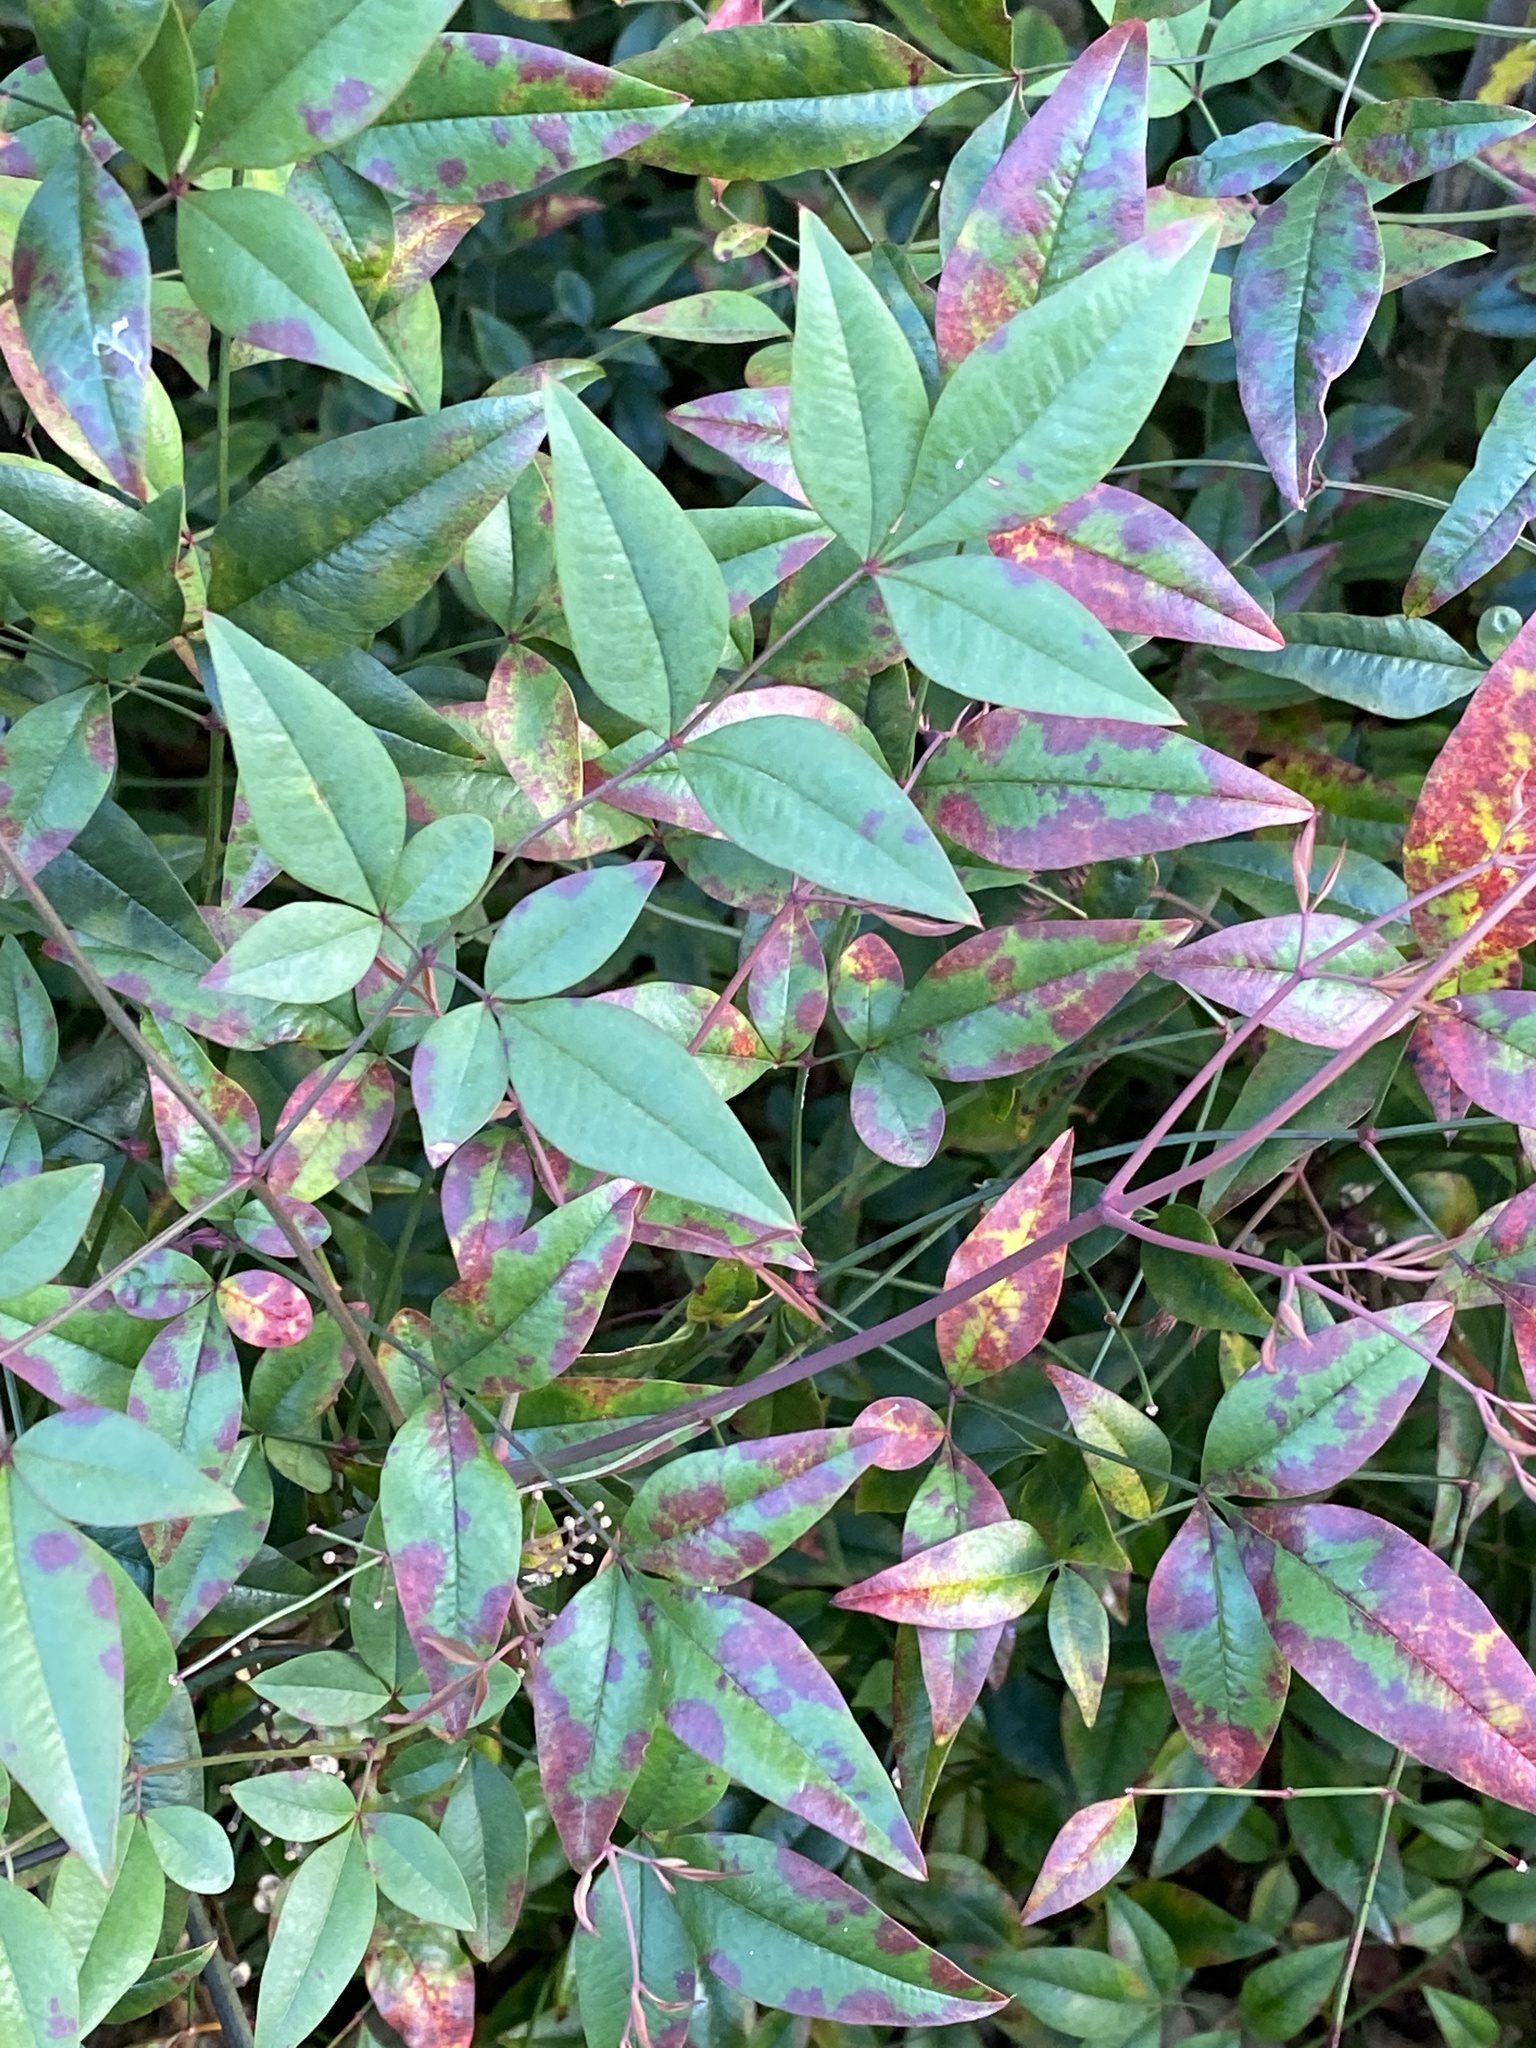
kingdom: Plantae
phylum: Tracheophyta
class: Magnoliopsida
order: Ranunculales
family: Berberidaceae
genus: Nandina
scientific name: Nandina domestica
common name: Sacred bamboo
